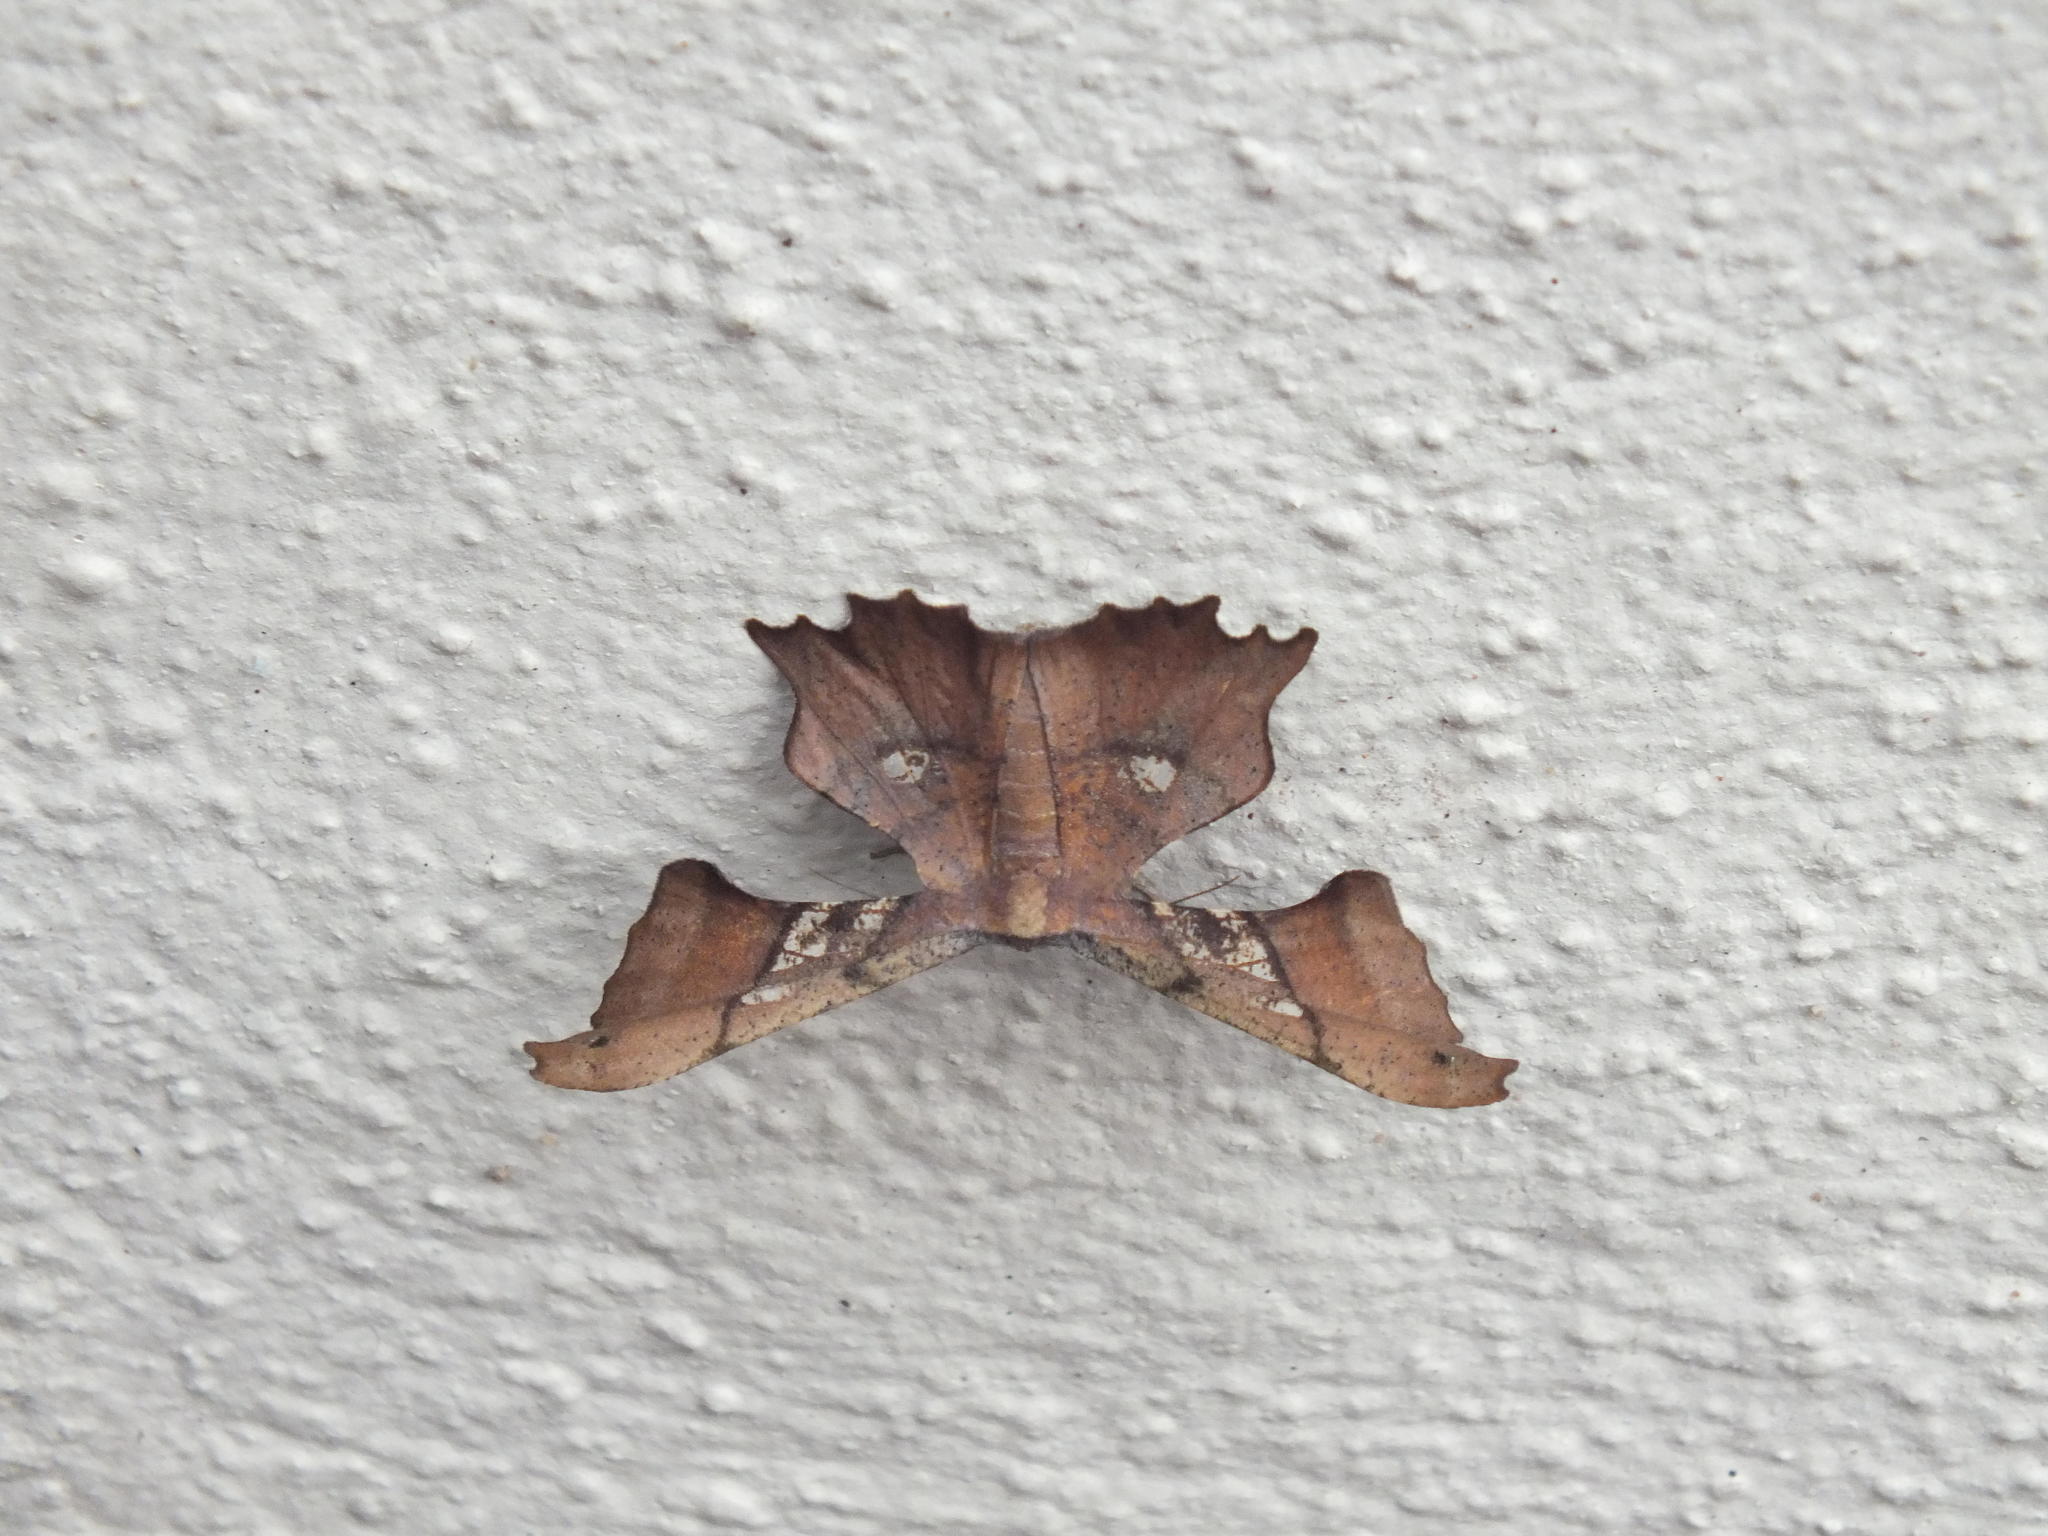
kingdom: Animalia
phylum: Arthropoda
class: Insecta
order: Lepidoptera
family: Geometridae
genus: Xenimpia
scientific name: Xenimpia erosa
